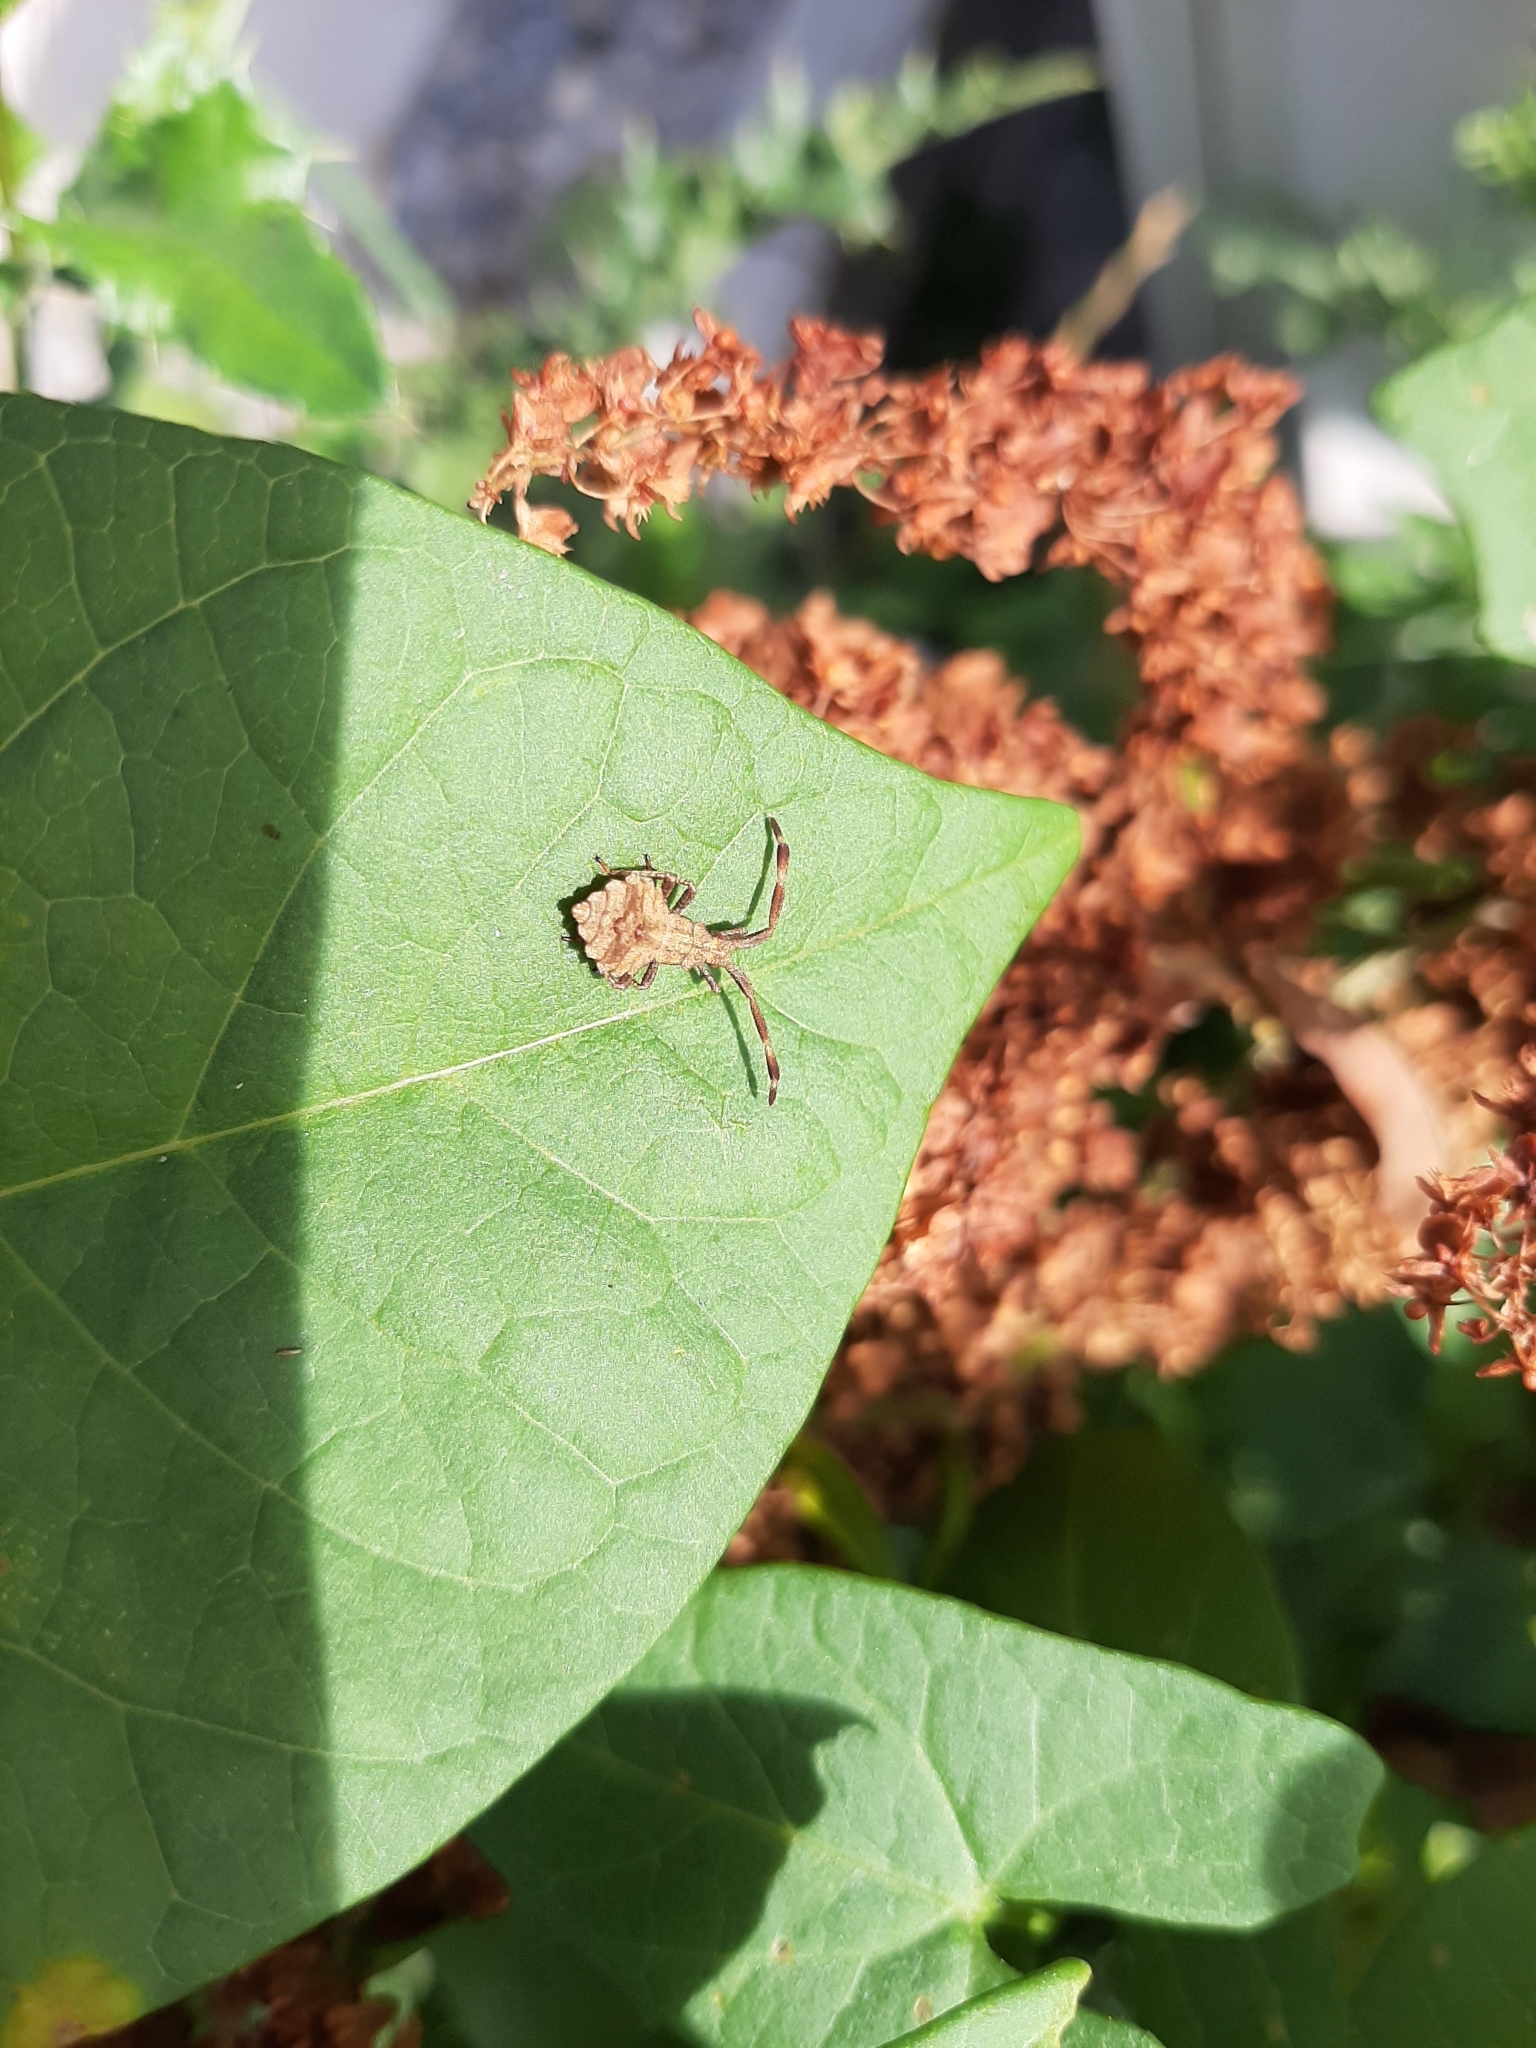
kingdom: Animalia
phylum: Arthropoda
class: Insecta
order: Hemiptera
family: Coreidae
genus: Coreus
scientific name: Coreus marginatus
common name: Dock bug
